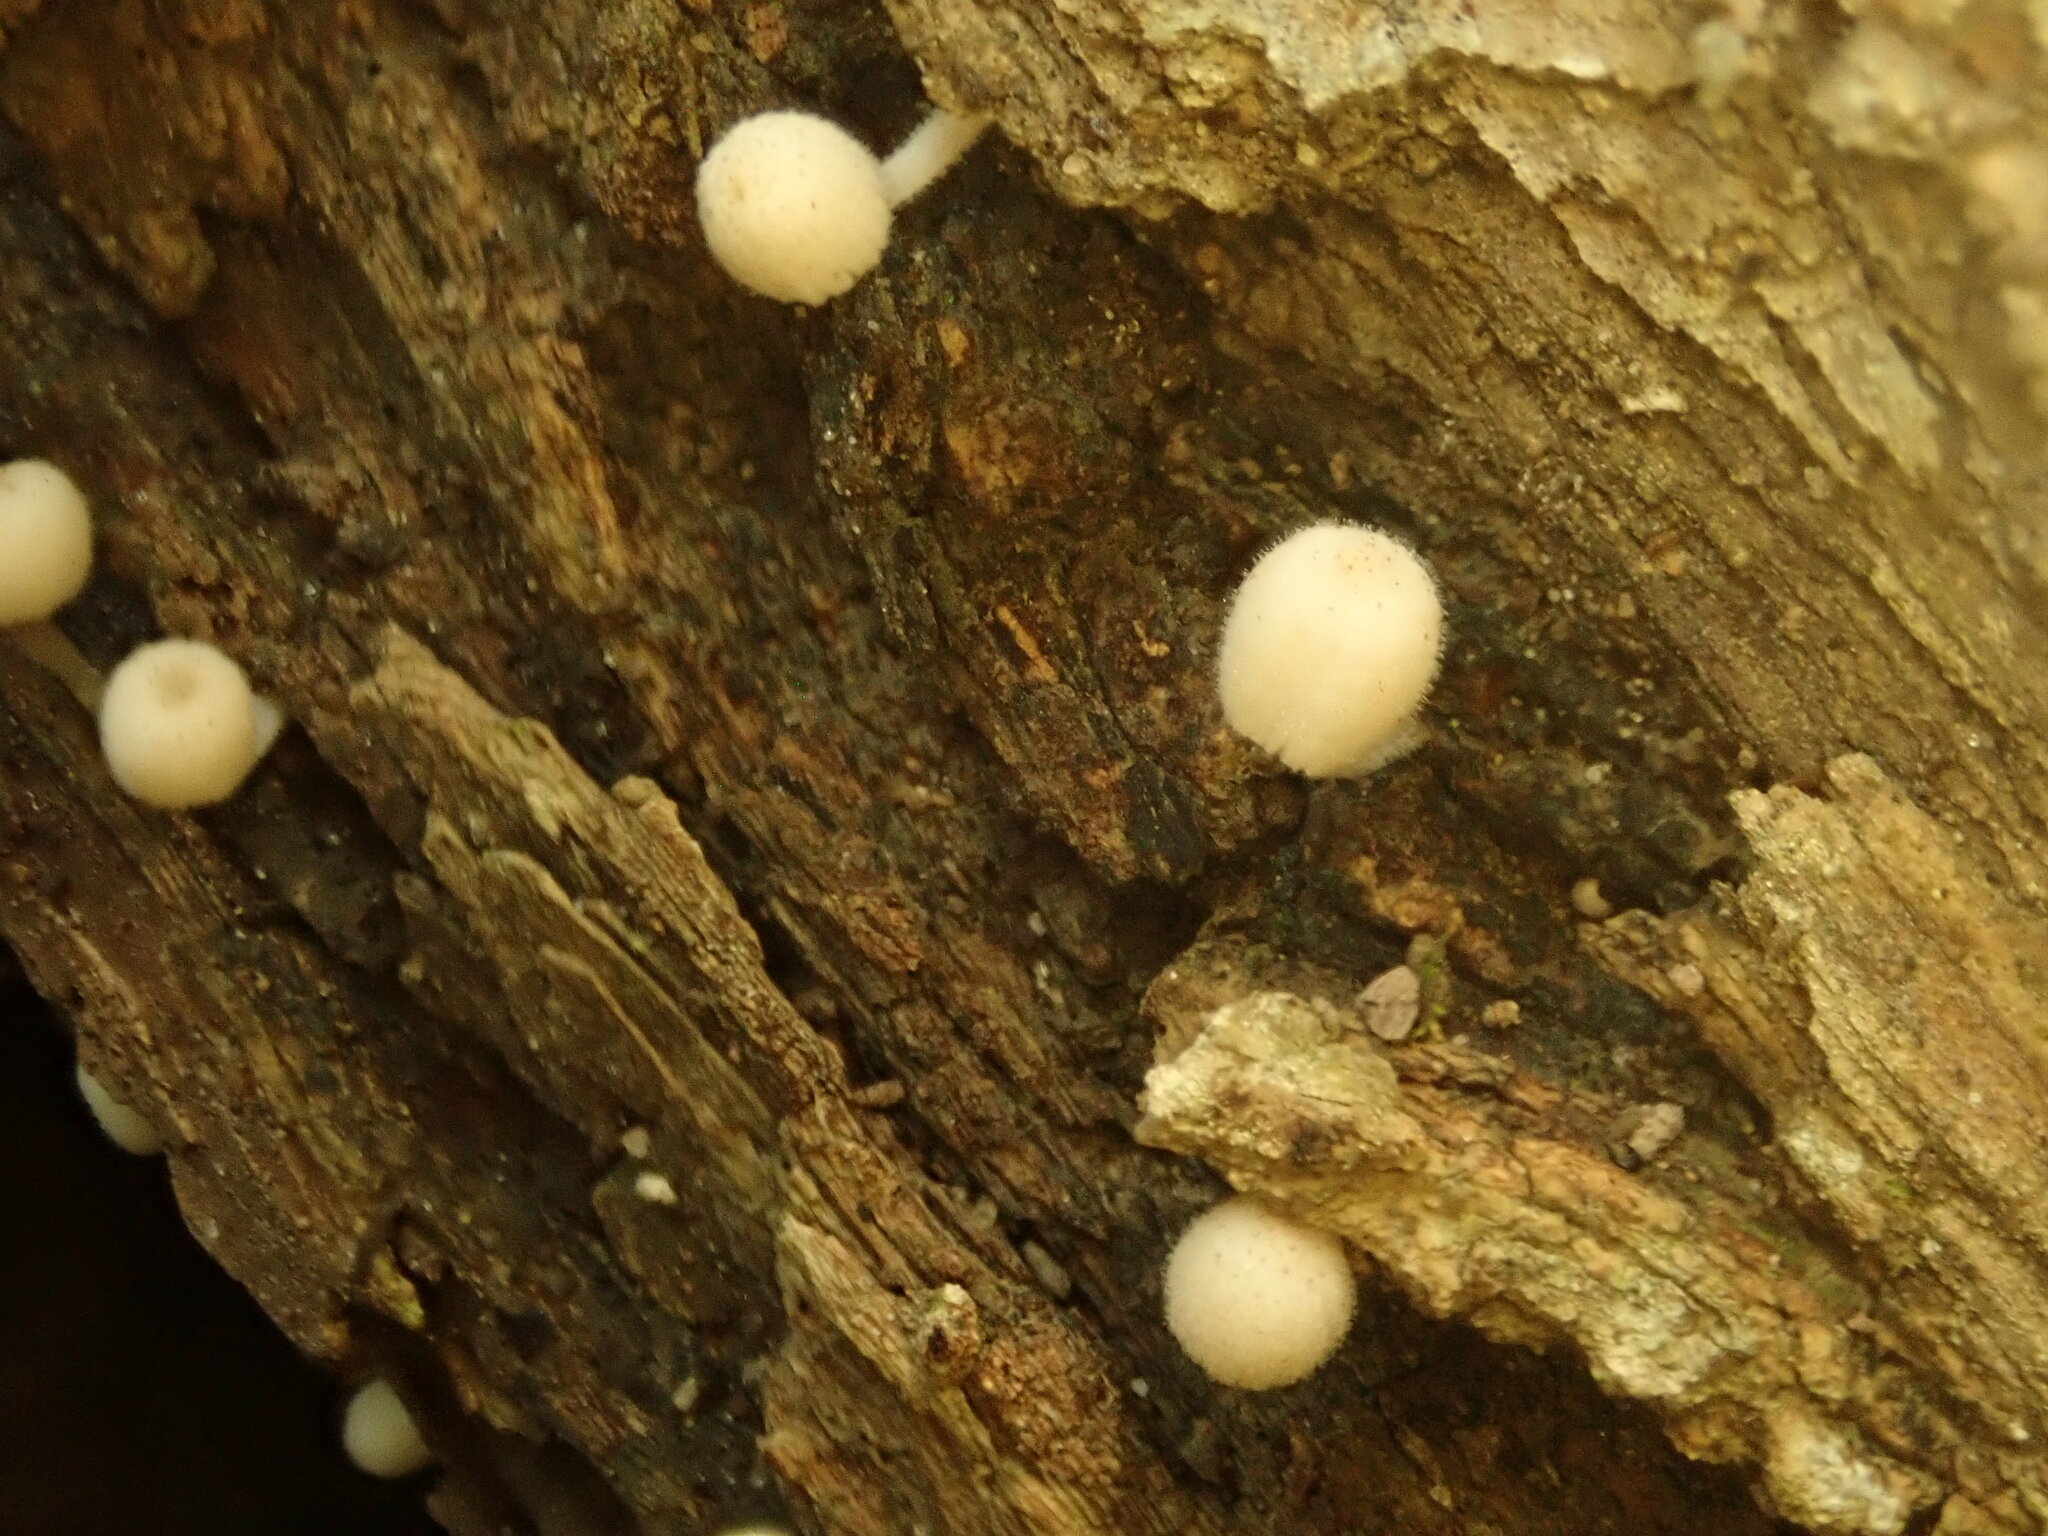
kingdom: Fungi
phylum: Basidiomycota
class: Agaricomycetes
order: Agaricales
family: Psathyrellaceae
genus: Coprinellus
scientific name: Coprinellus disseminatus
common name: Fairies' bonnets
